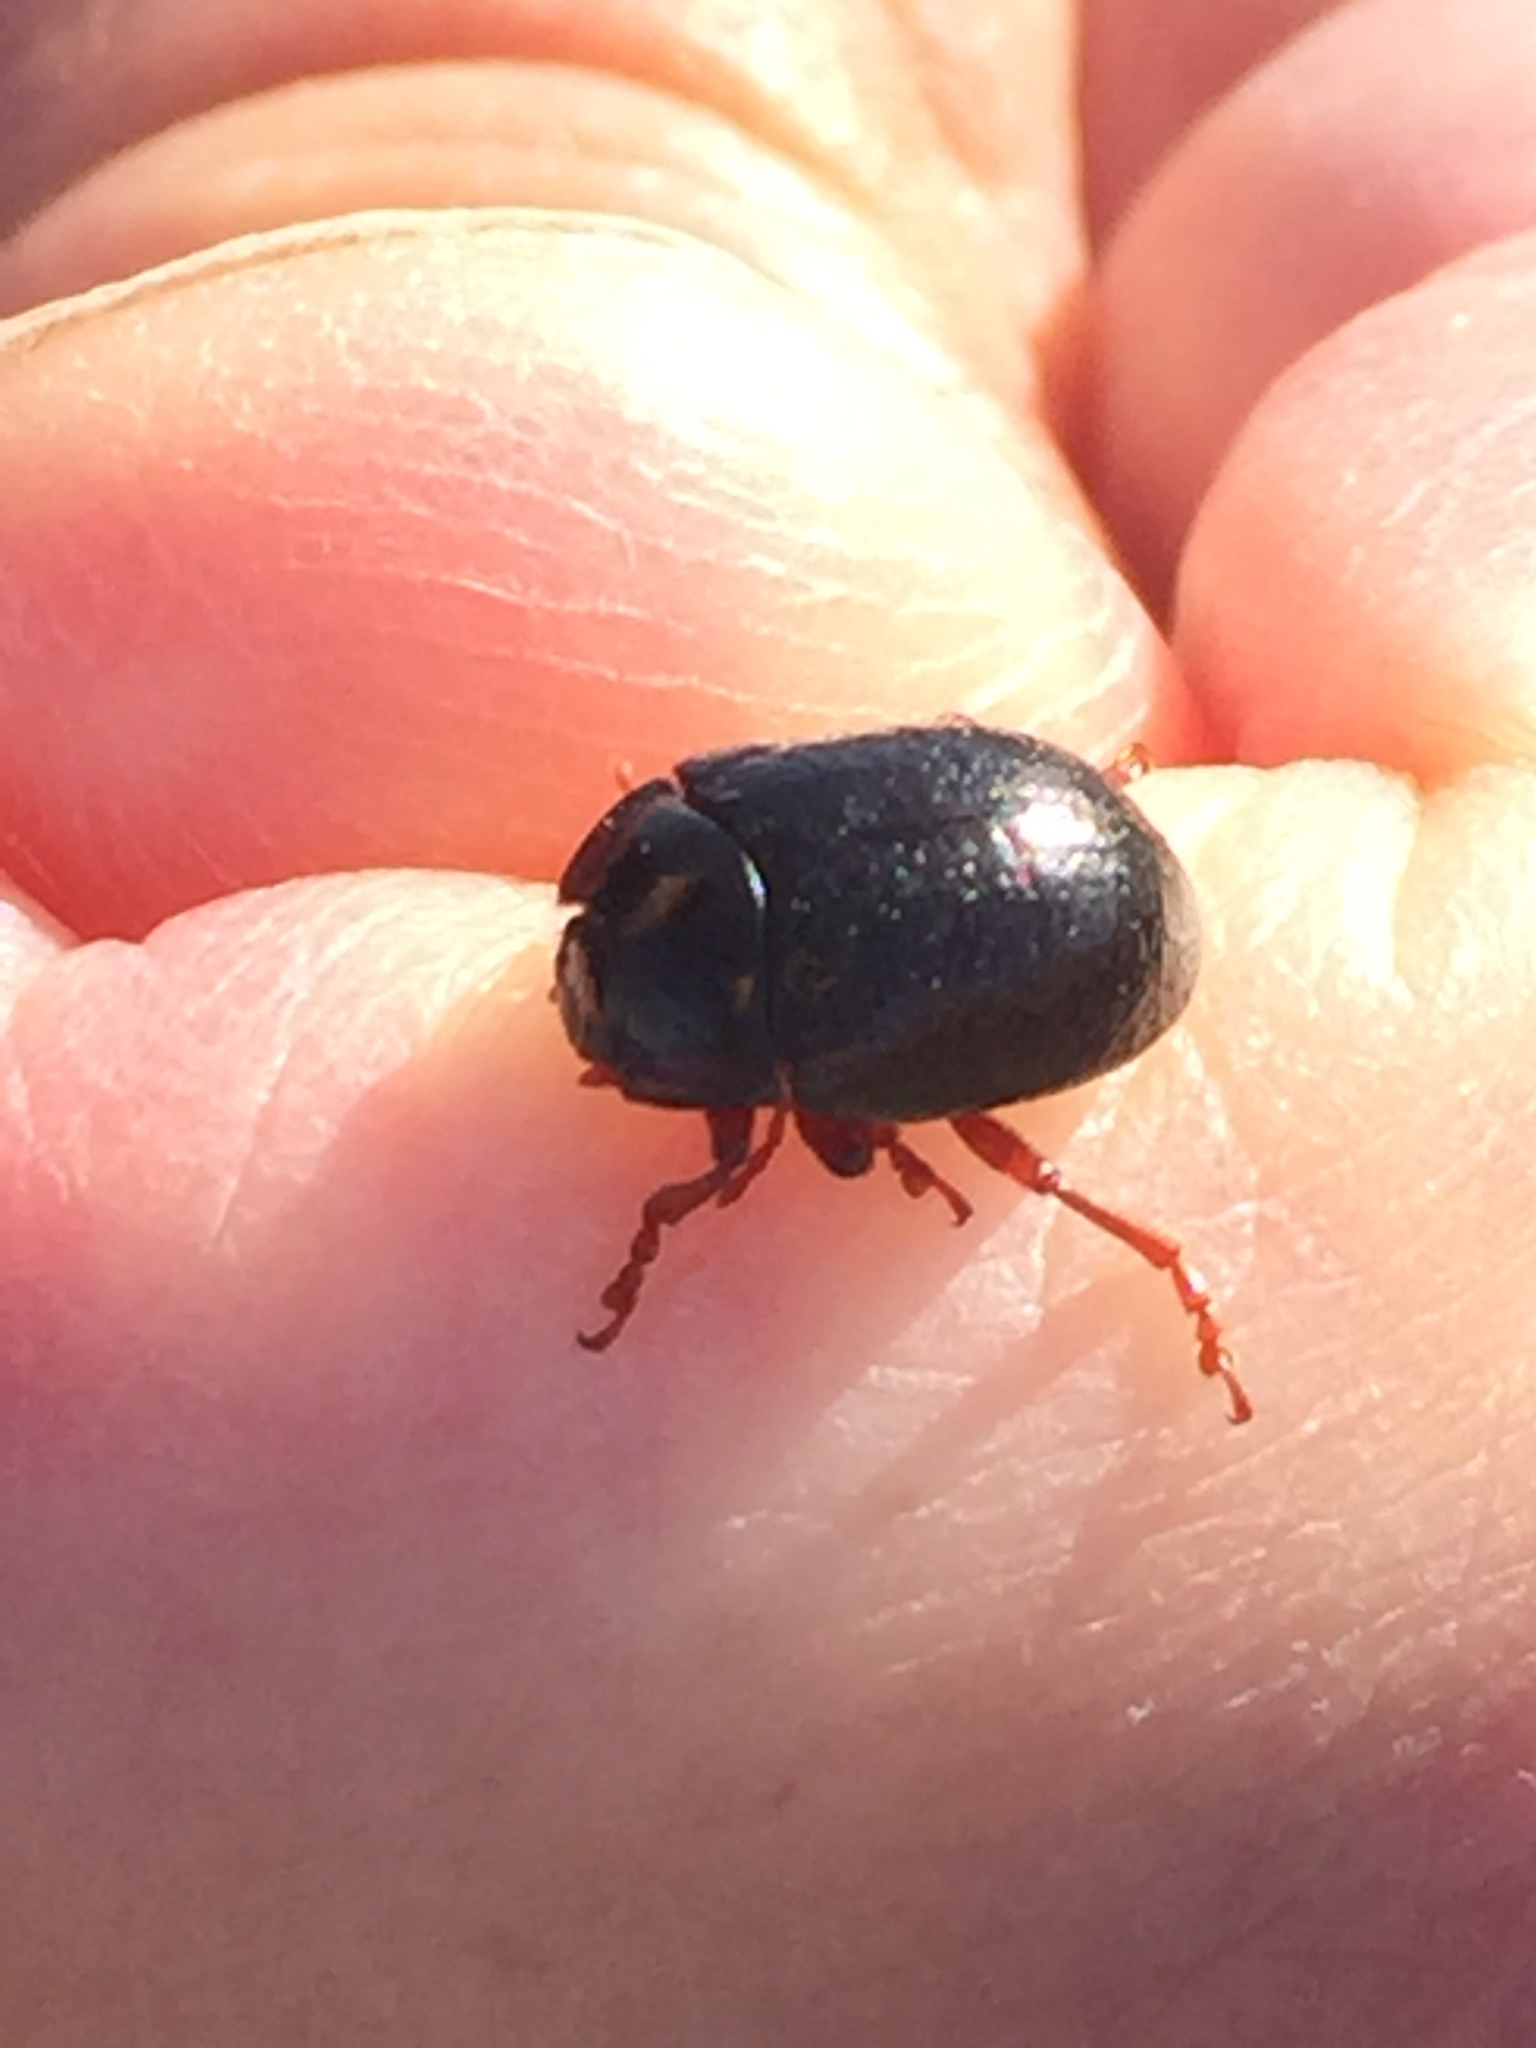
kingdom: Animalia
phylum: Arthropoda
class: Insecta
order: Coleoptera
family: Chrysomelidae
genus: Chrysolina
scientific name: Chrysolina bankii
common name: Leaf beetle
